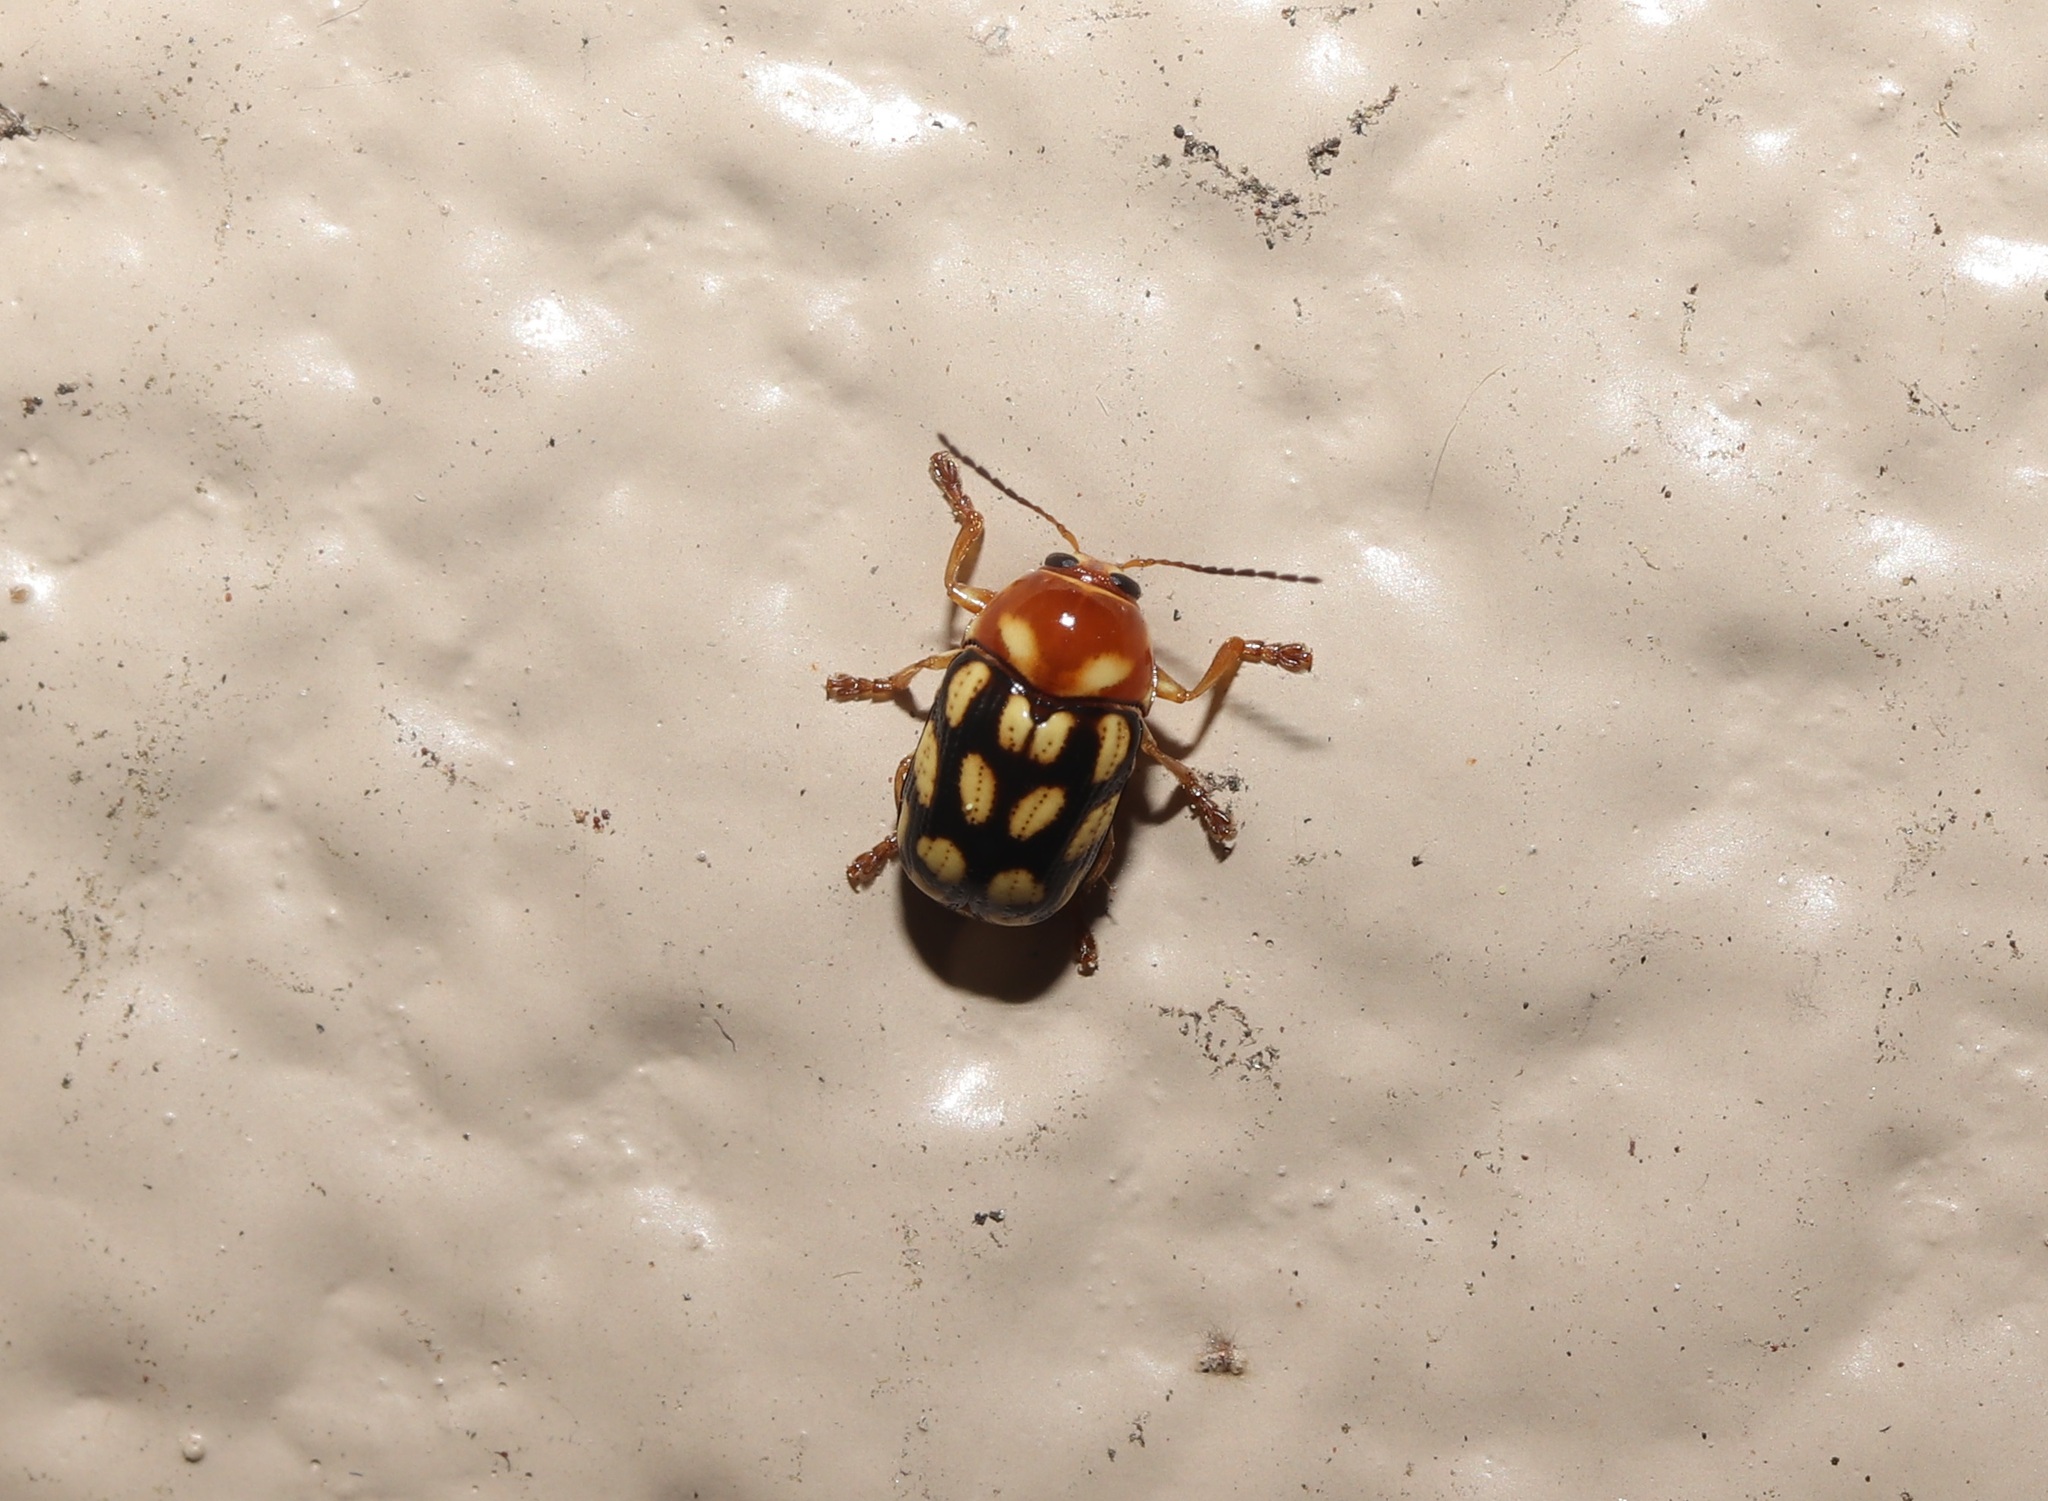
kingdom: Animalia
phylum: Arthropoda
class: Insecta
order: Coleoptera
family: Chrysomelidae
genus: Cryptocephalus
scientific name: Cryptocephalus perelegans
